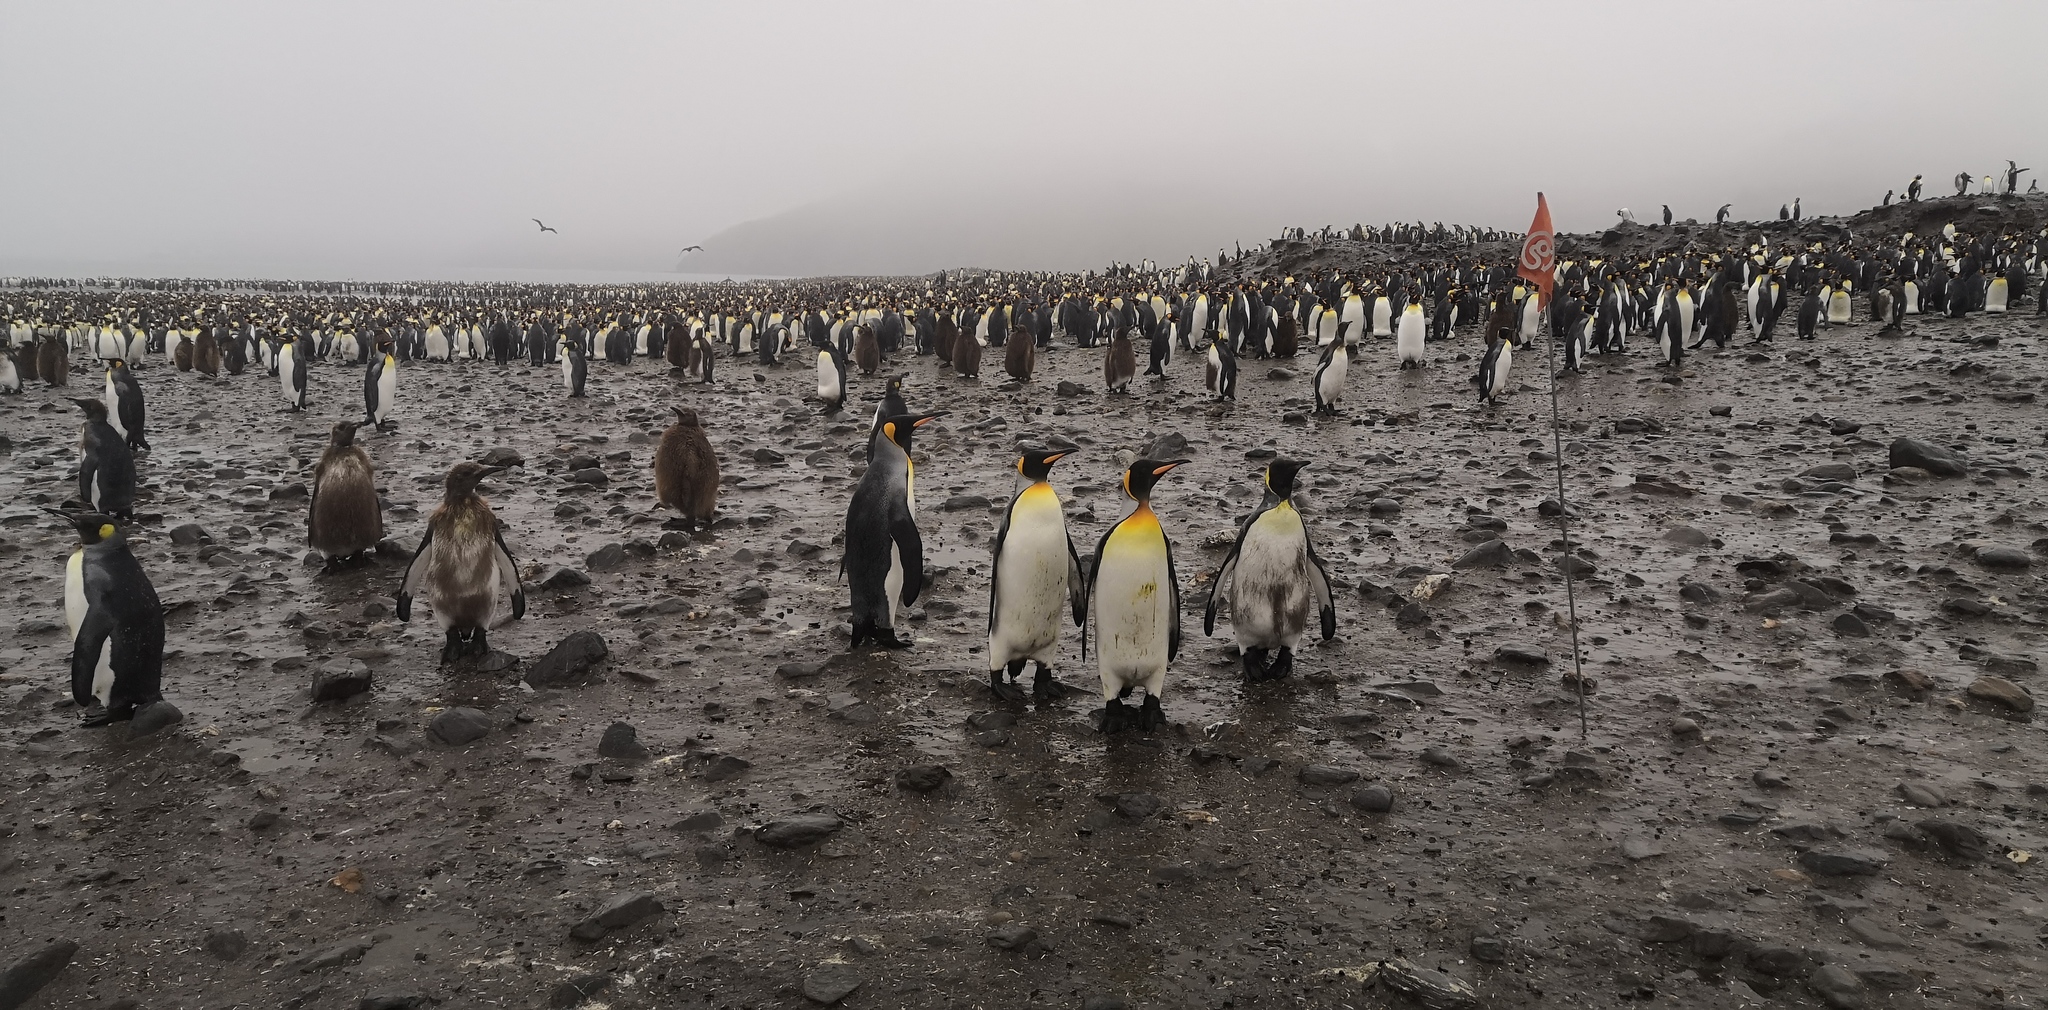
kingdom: Animalia
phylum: Chordata
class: Aves
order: Sphenisciformes
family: Spheniscidae
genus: Aptenodytes
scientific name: Aptenodytes patagonicus
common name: King penguin
